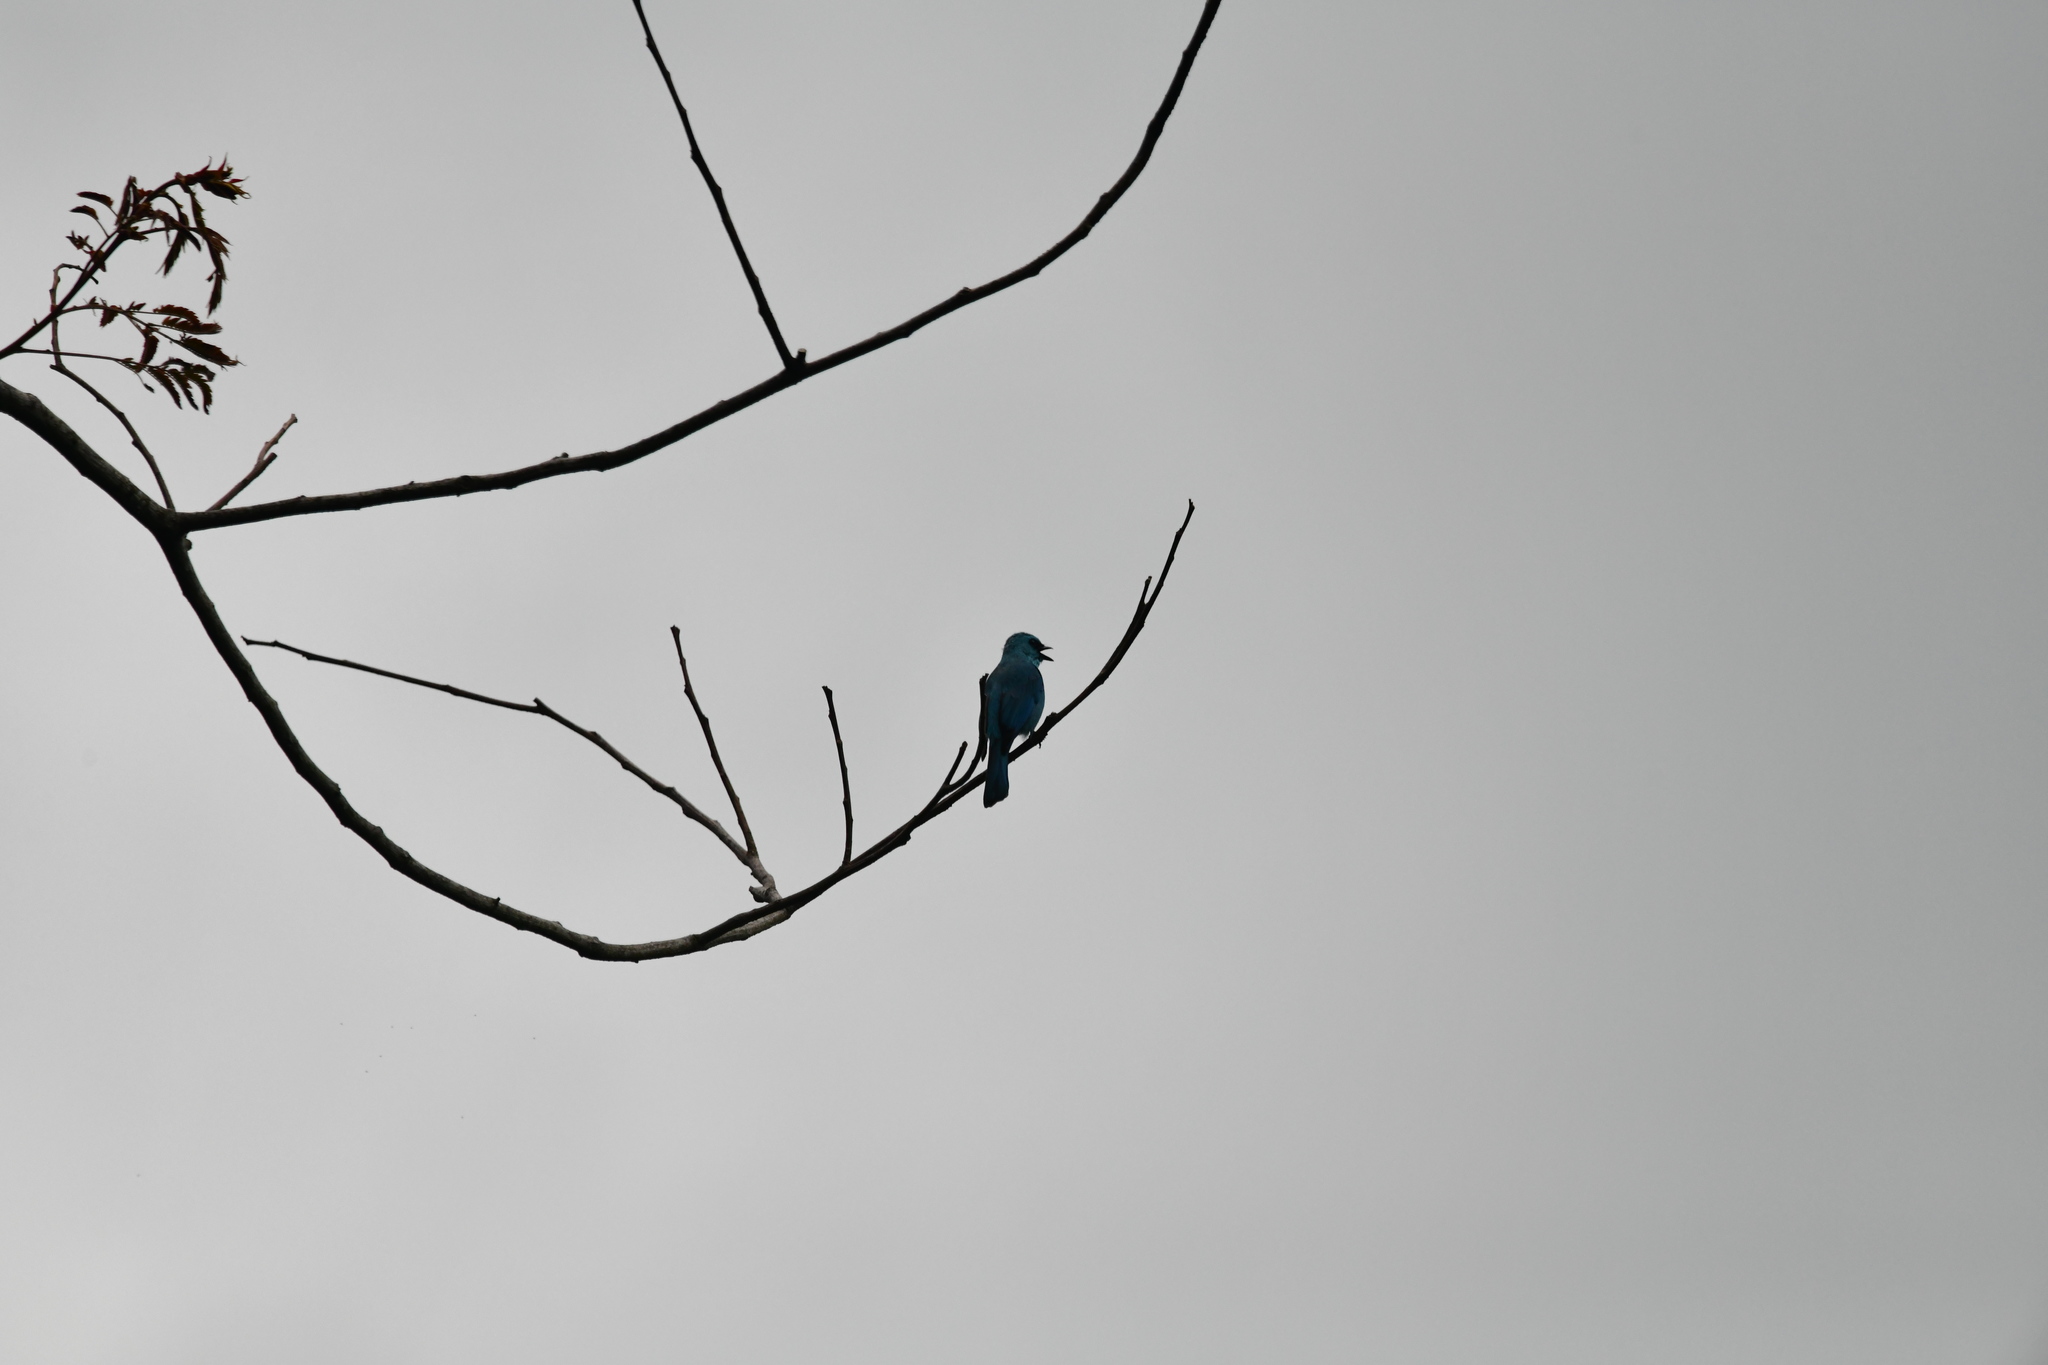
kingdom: Animalia
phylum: Chordata
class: Aves
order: Passeriformes
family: Muscicapidae
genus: Eumyias
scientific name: Eumyias thalassinus
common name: Verditer flycatcher
